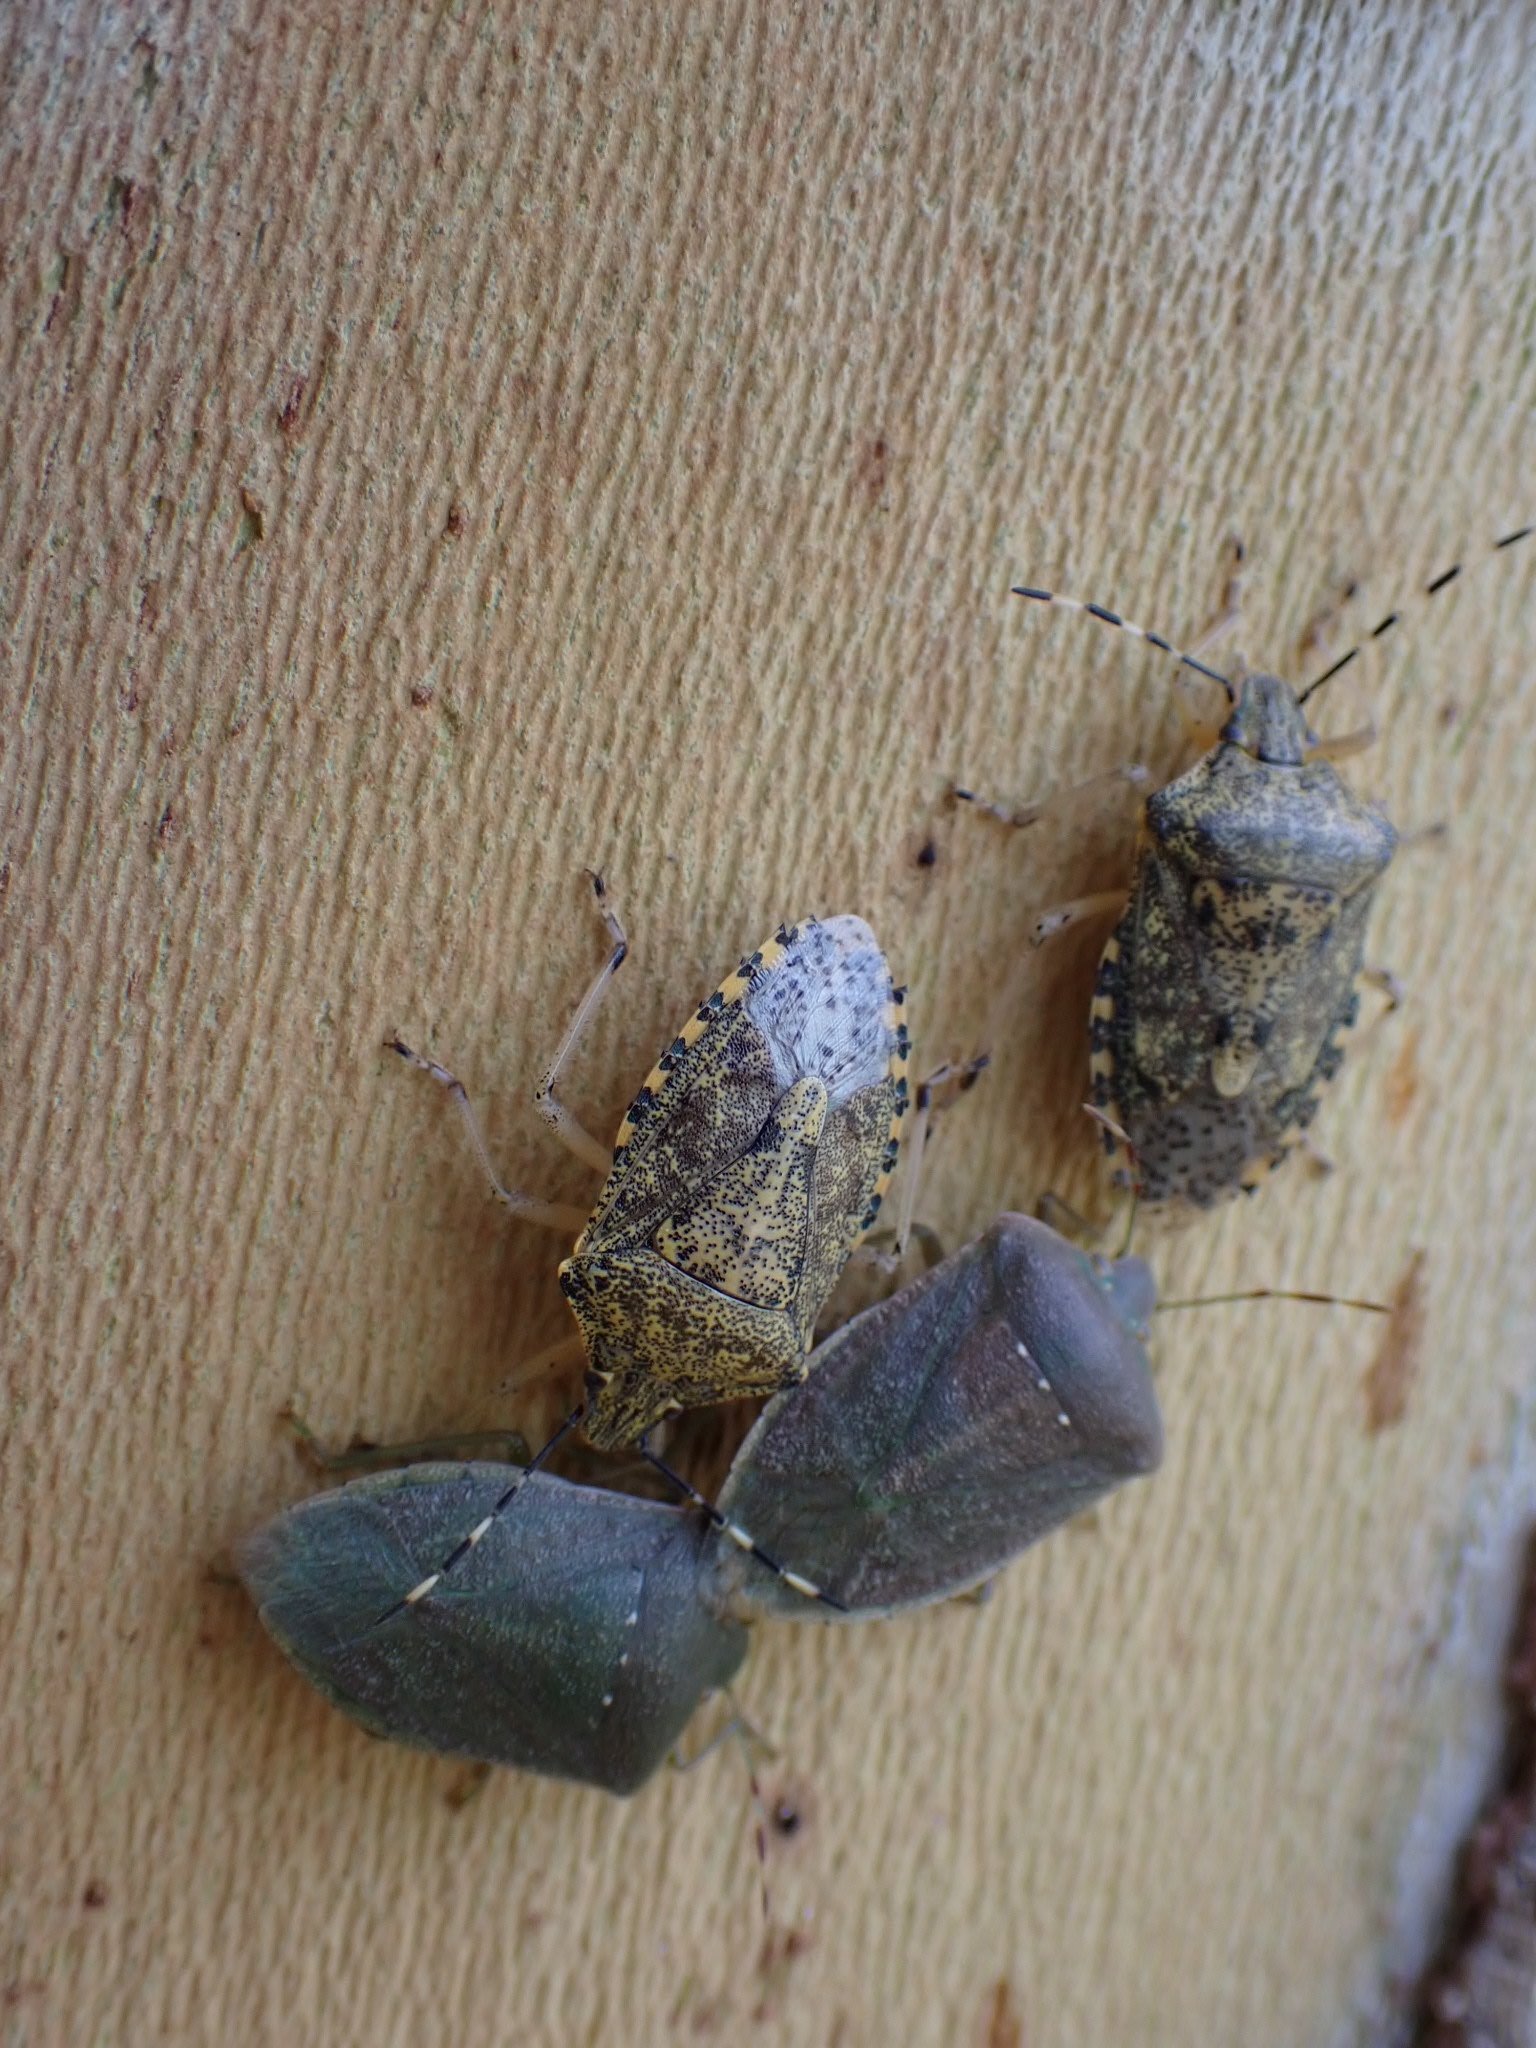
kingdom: Animalia
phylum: Arthropoda
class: Insecta
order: Hemiptera
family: Pentatomidae
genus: Rhaphigaster
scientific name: Rhaphigaster nebulosa
